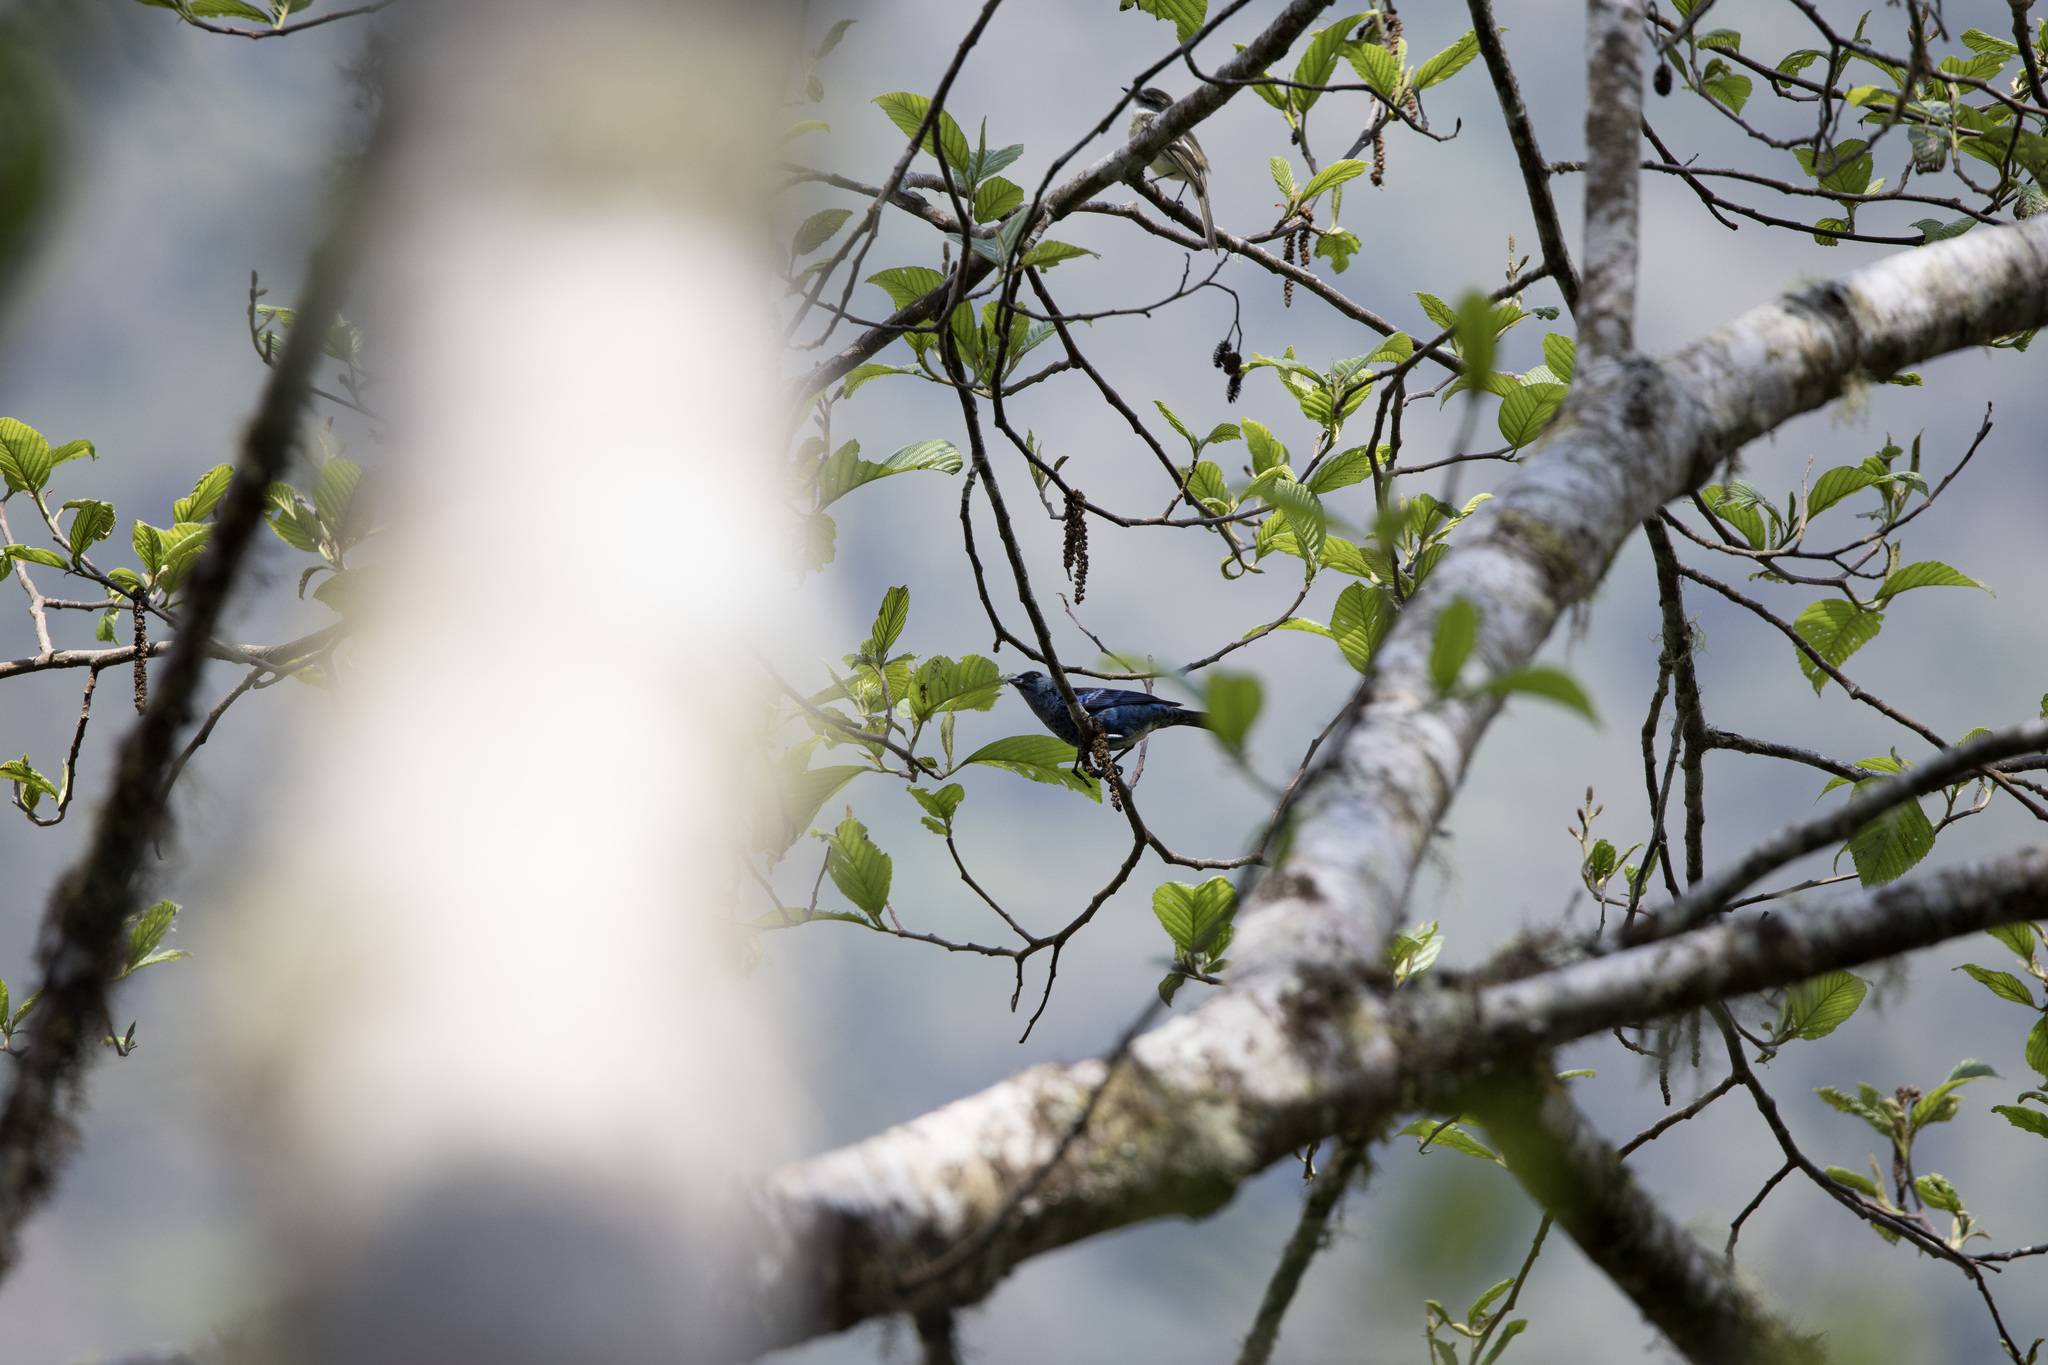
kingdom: Animalia
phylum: Chordata
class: Aves
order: Passeriformes
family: Thraupidae
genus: Tangara
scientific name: Tangara vassorii
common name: Blue-and-black tanager
